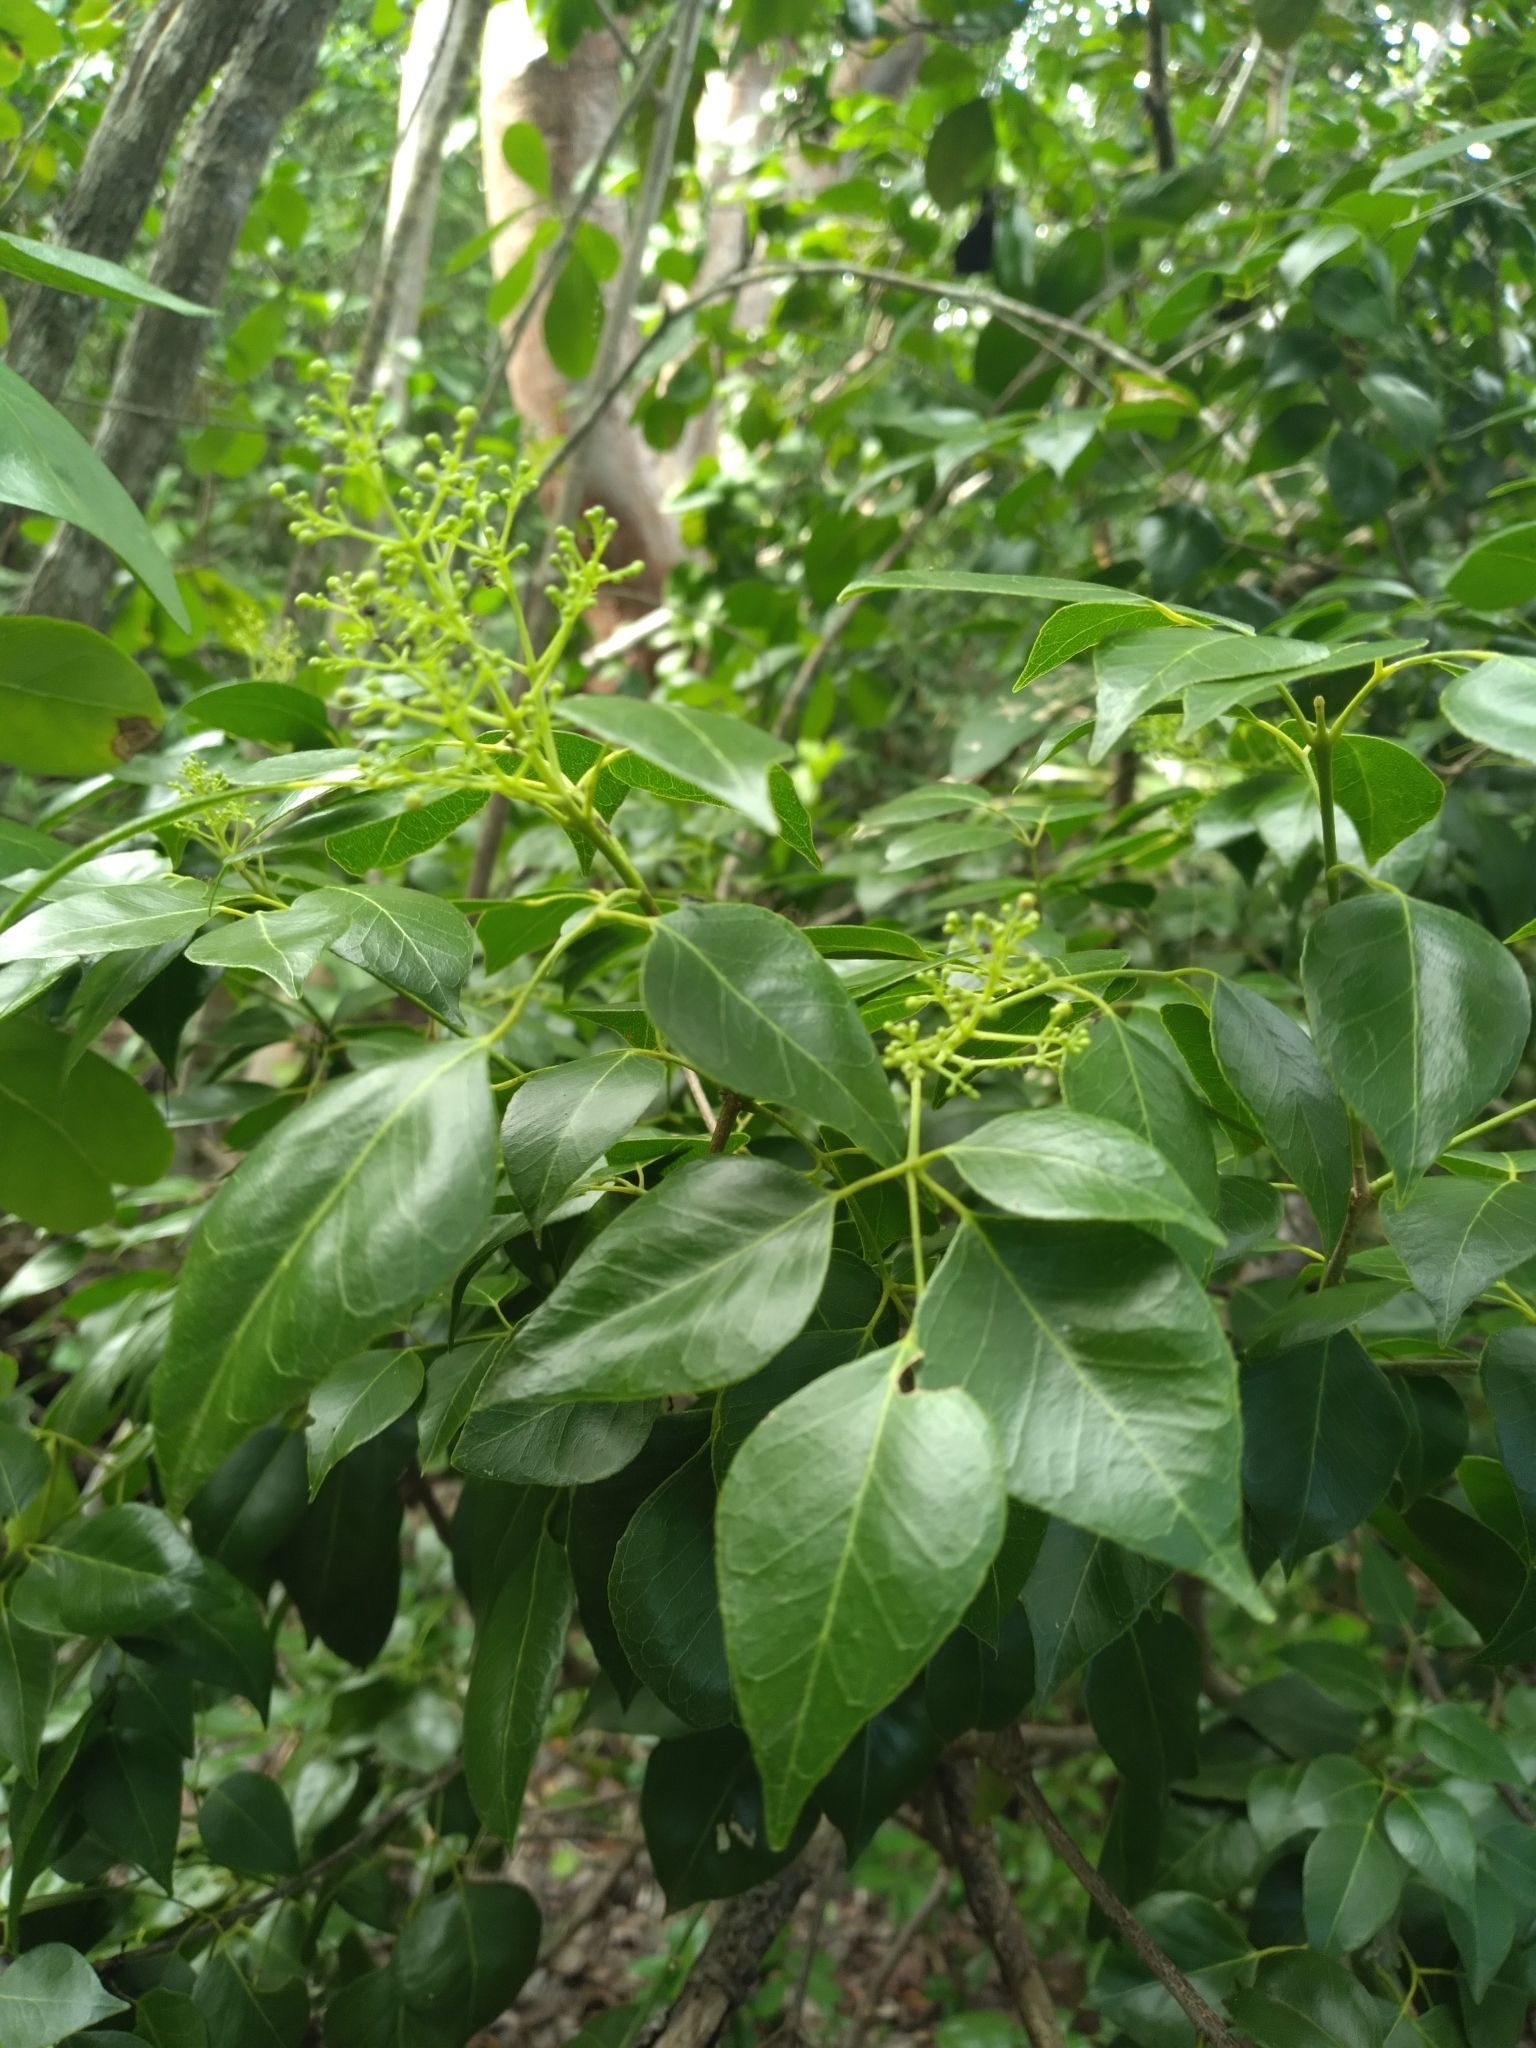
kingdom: Plantae
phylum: Tracheophyta
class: Magnoliopsida
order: Sapindales
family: Rutaceae
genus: Amyris
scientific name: Amyris elemifera
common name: Sea amyris
